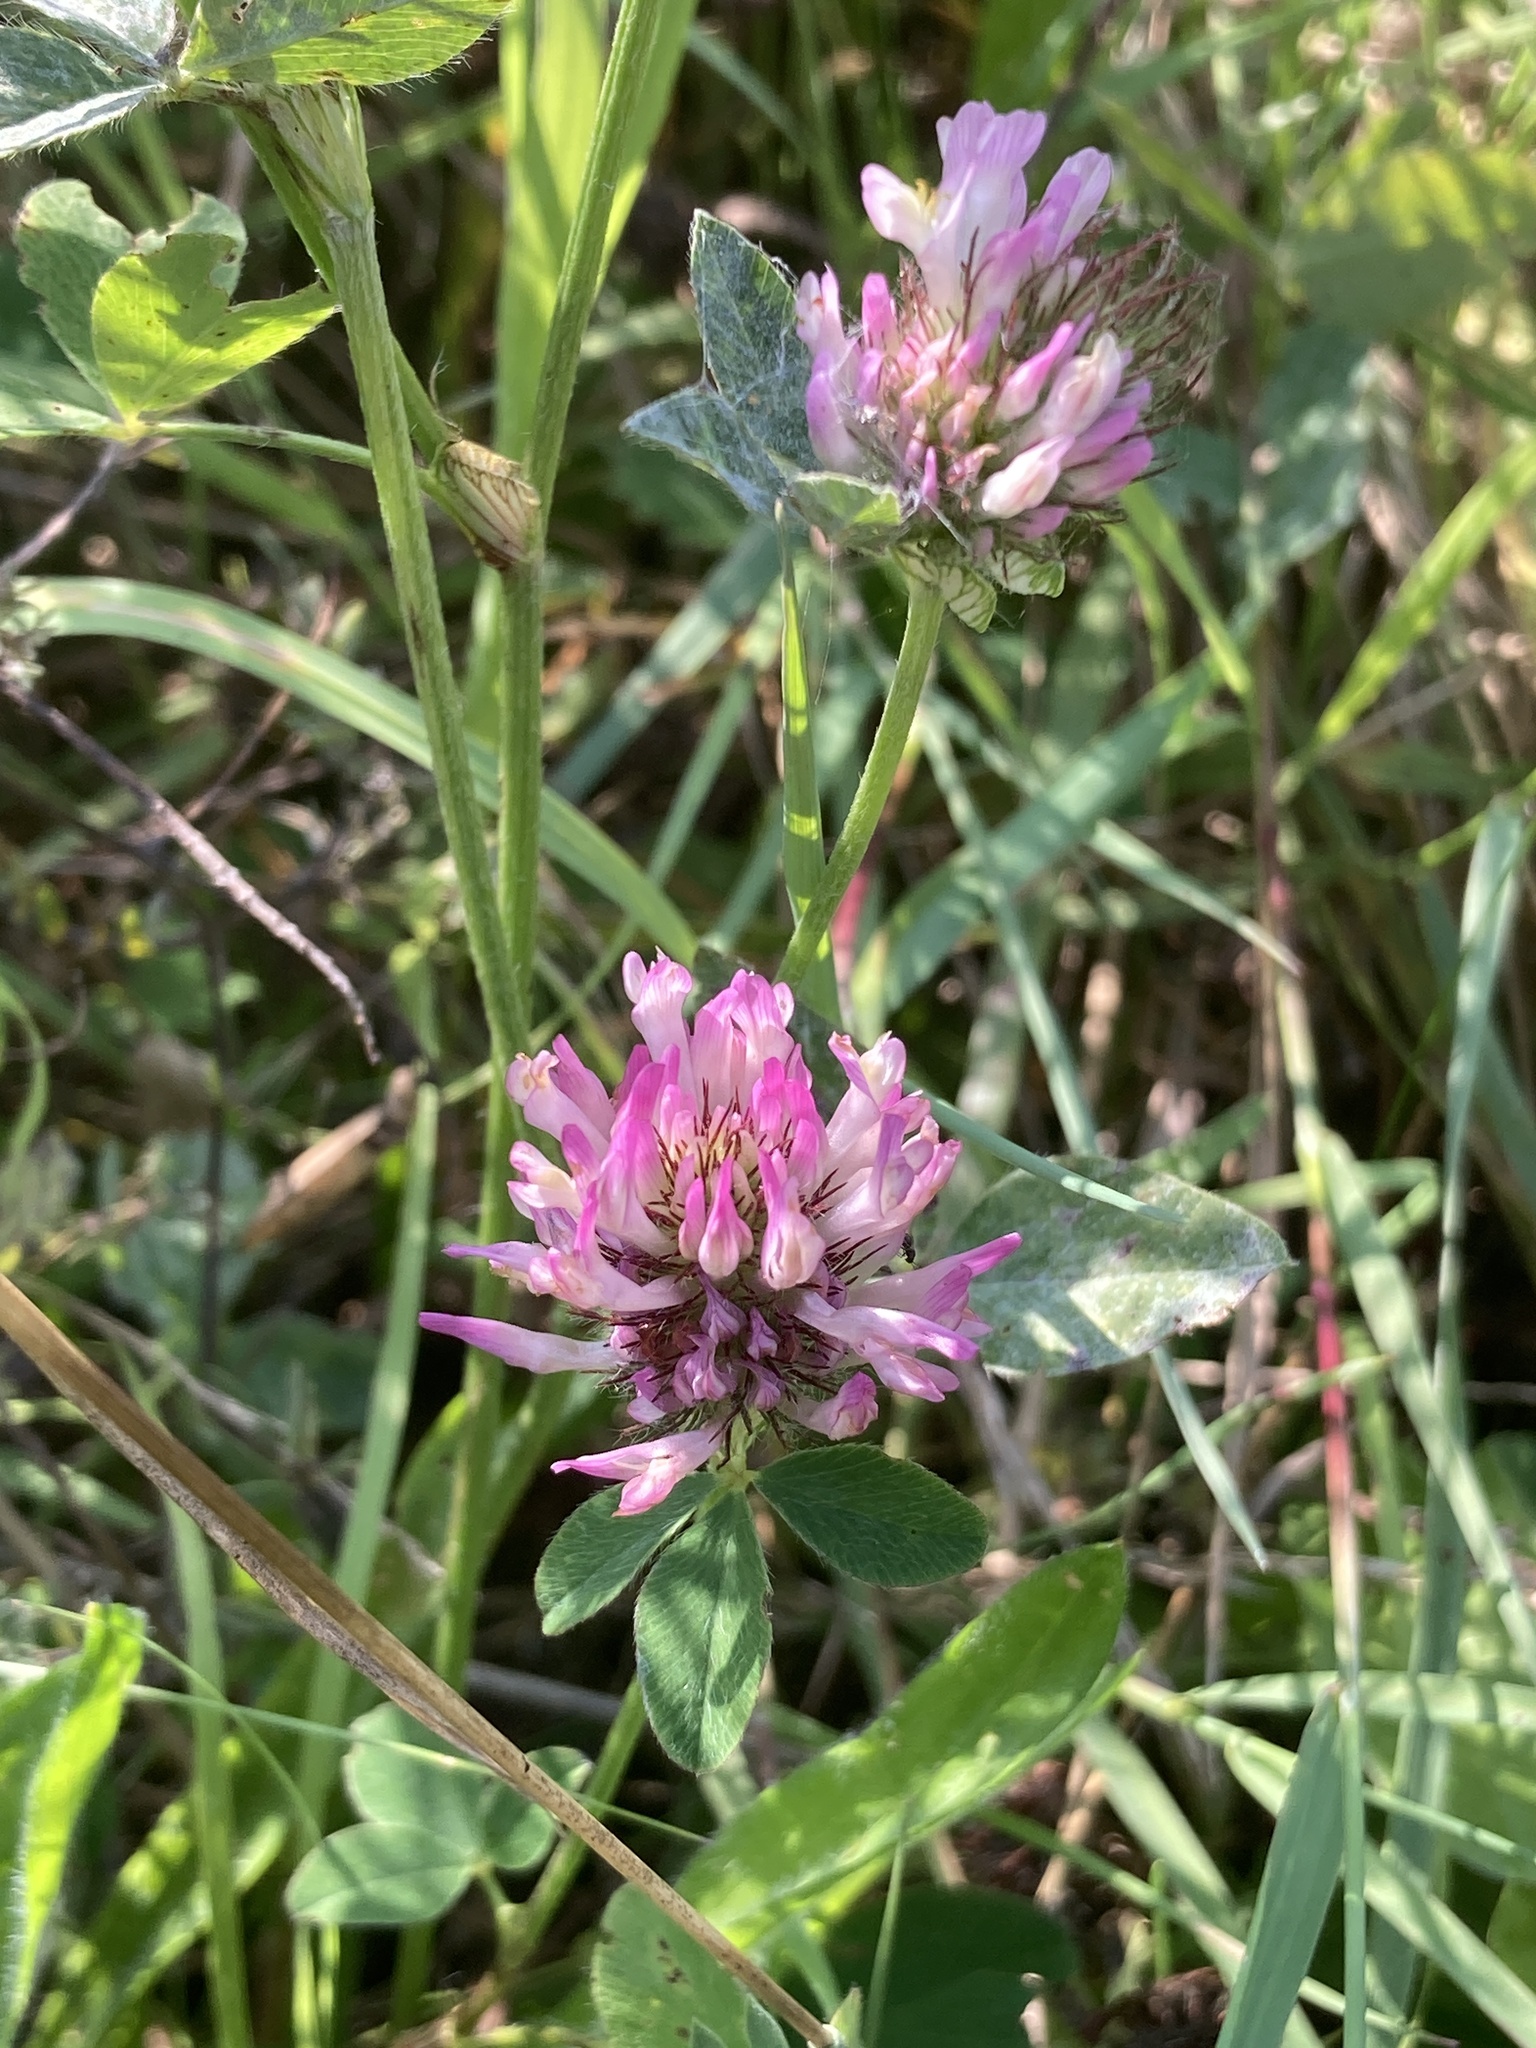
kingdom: Plantae
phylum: Tracheophyta
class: Magnoliopsida
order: Fabales
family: Fabaceae
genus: Trifolium
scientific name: Trifolium pratense
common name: Red clover
